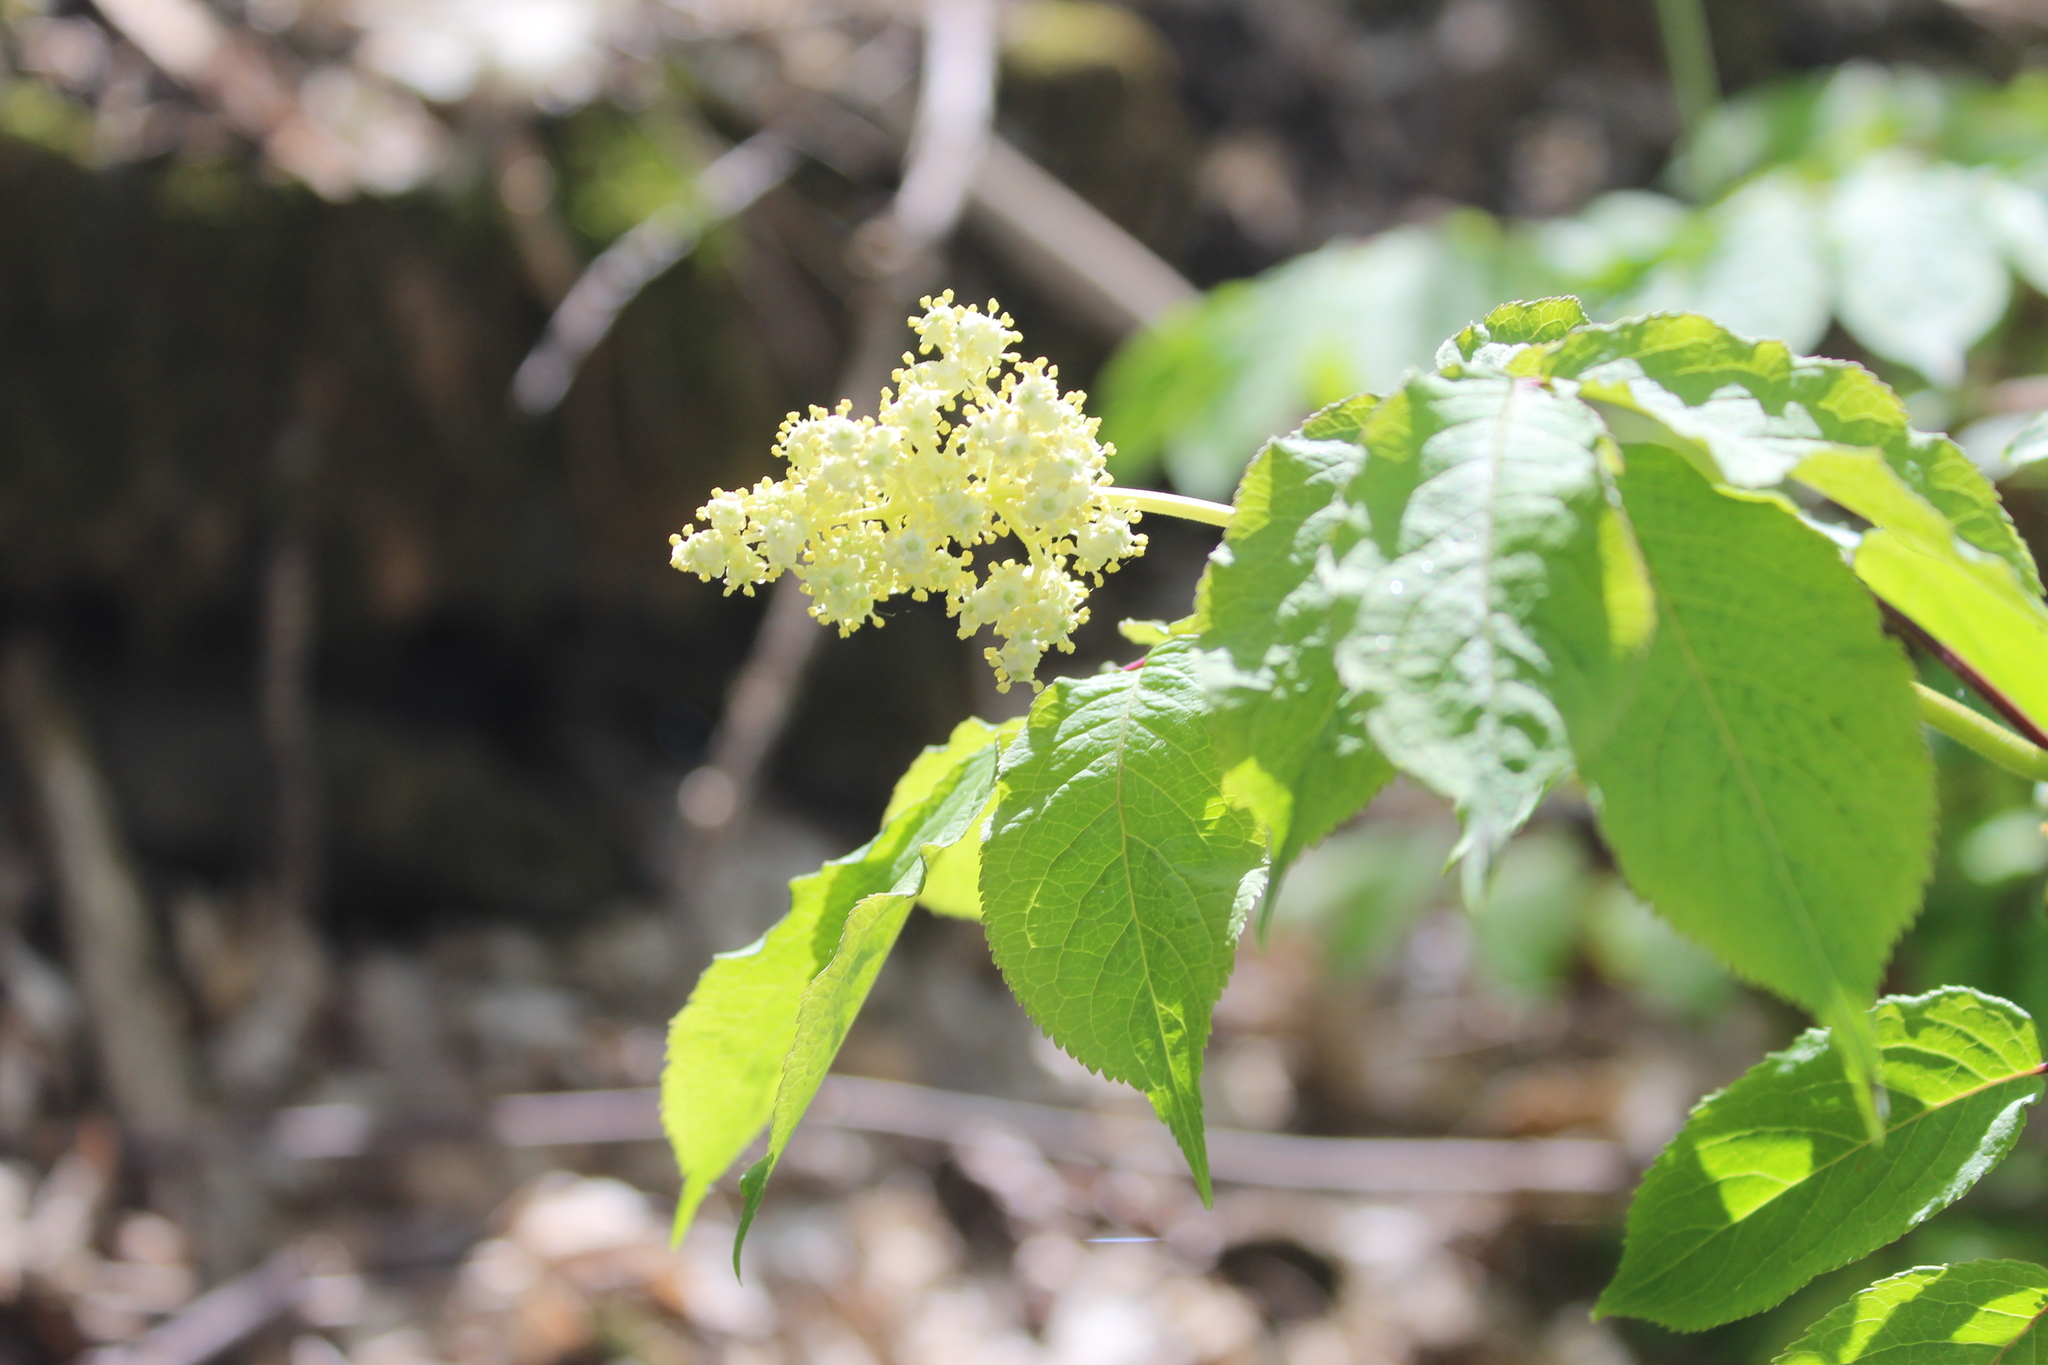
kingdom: Plantae
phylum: Tracheophyta
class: Magnoliopsida
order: Dipsacales
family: Viburnaceae
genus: Sambucus
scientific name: Sambucus racemosa
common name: Red-berried elder
